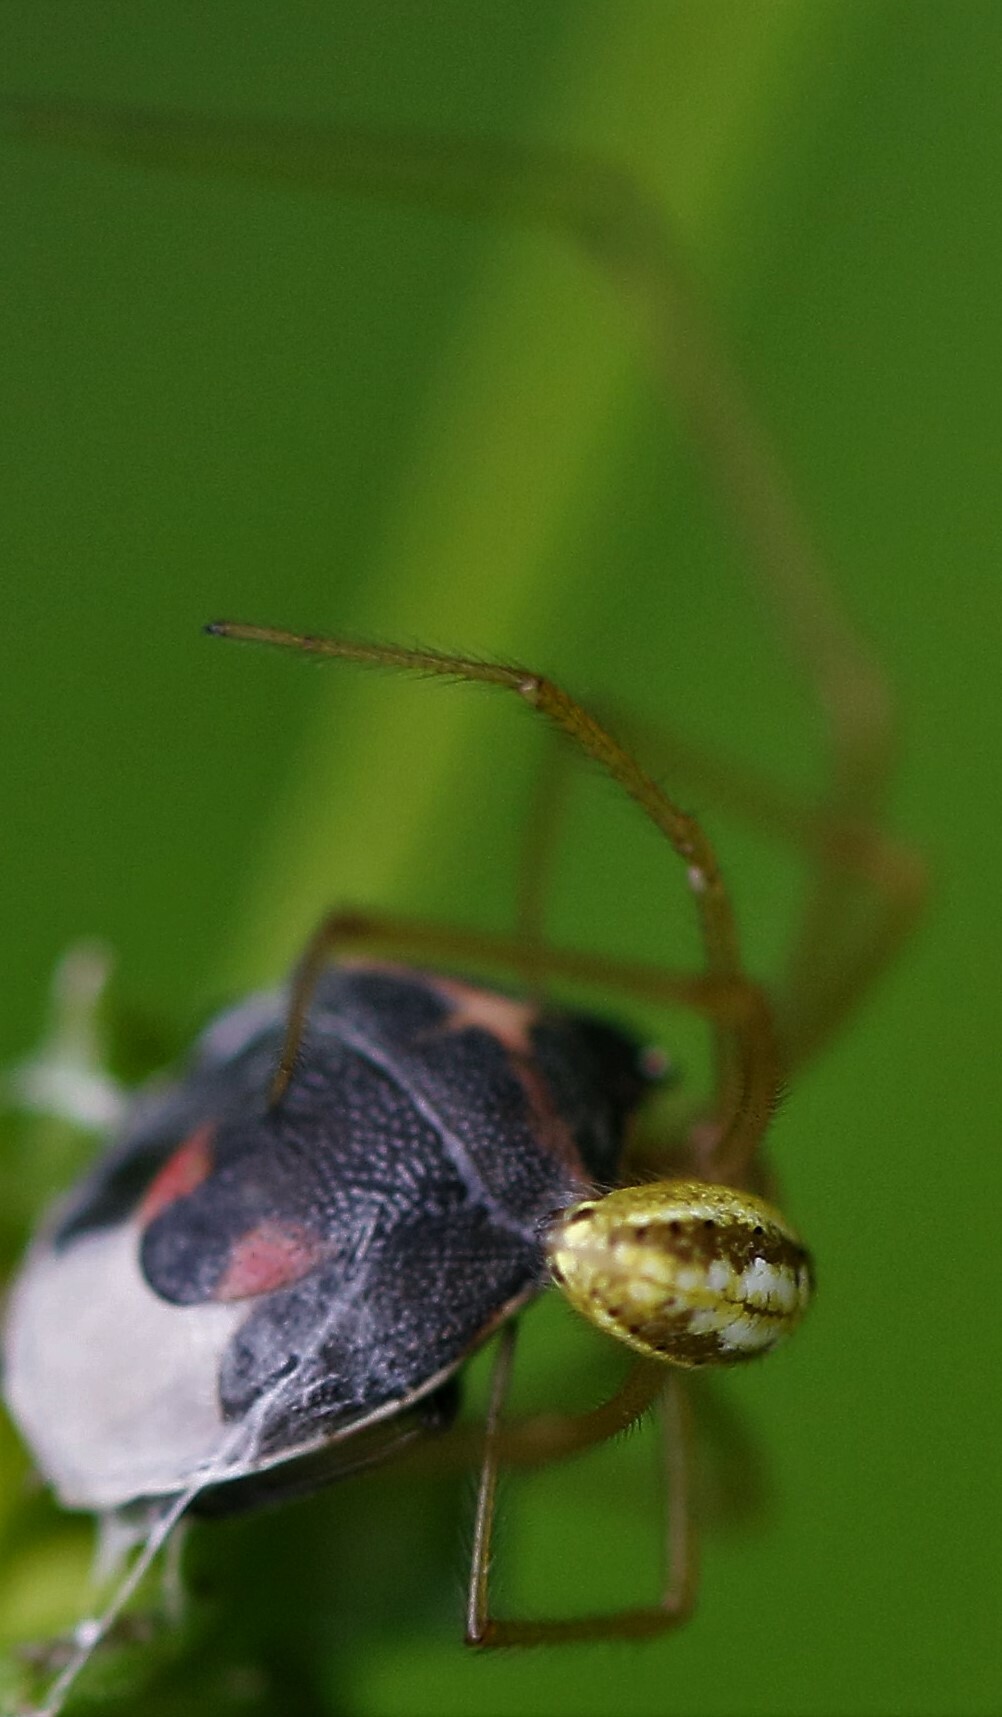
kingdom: Animalia
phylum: Arthropoda
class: Arachnida
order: Araneae
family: Theridiidae
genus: Enoplognatha
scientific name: Enoplognatha ovata
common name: Common candy-striped spider
